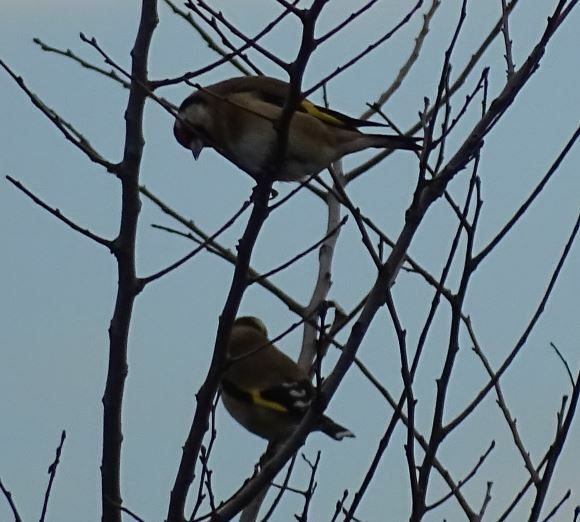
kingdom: Animalia
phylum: Chordata
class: Aves
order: Passeriformes
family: Fringillidae
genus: Carduelis
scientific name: Carduelis carduelis
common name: European goldfinch
